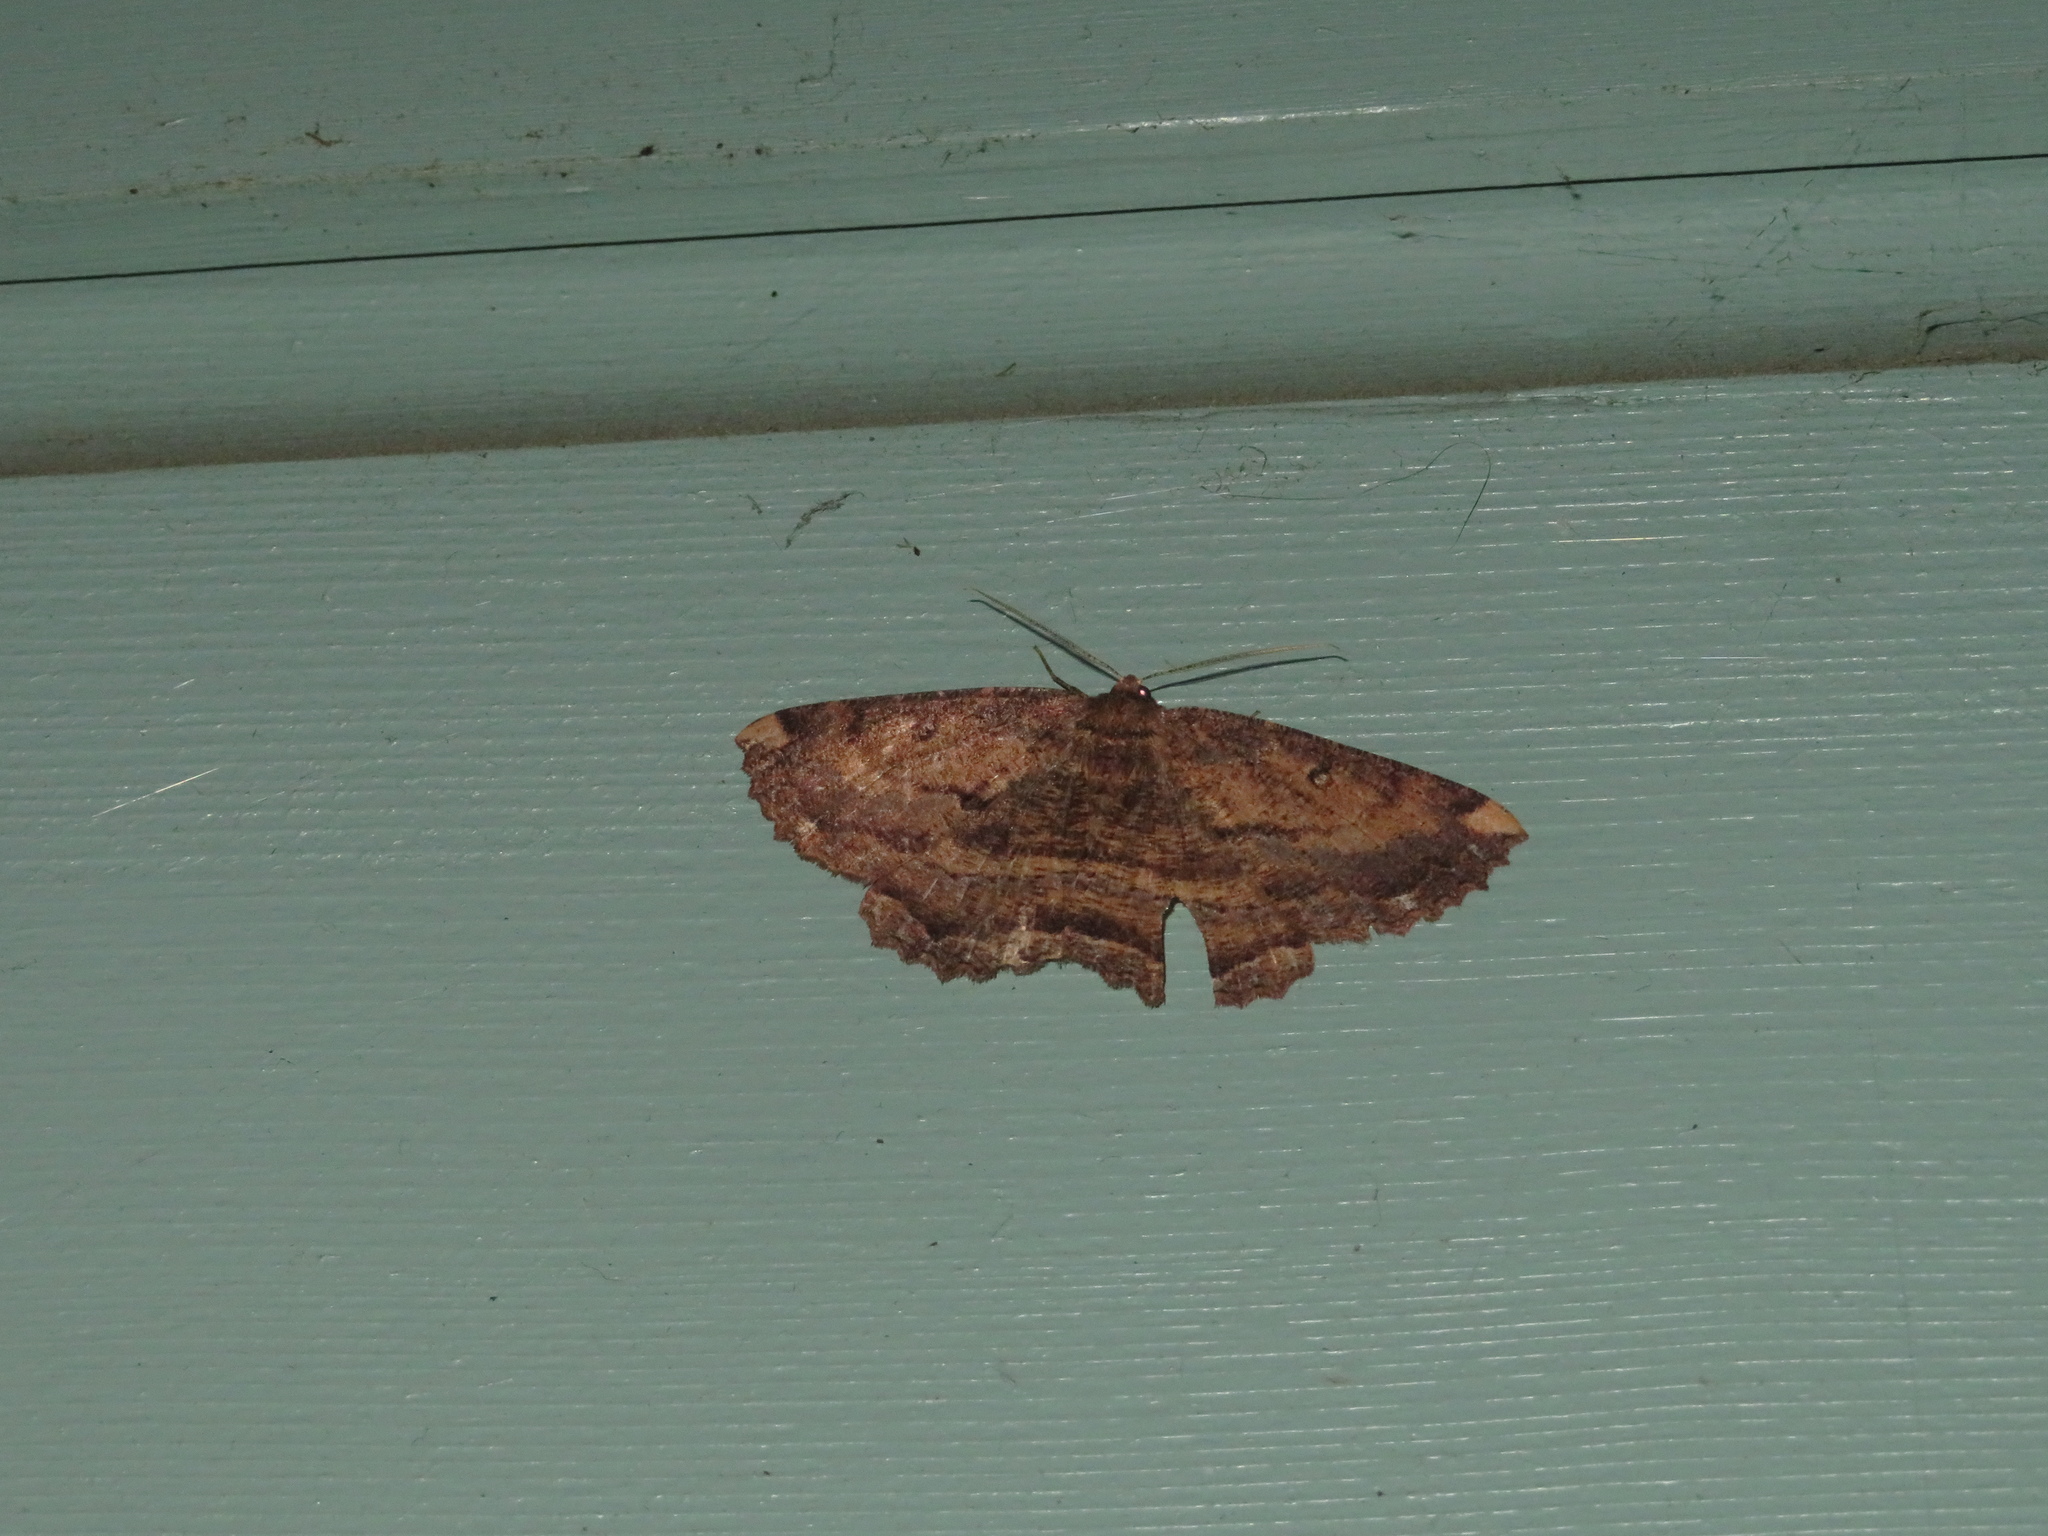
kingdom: Animalia
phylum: Arthropoda
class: Insecta
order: Lepidoptera
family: Geometridae
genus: Gellonia
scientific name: Gellonia dejectaria
